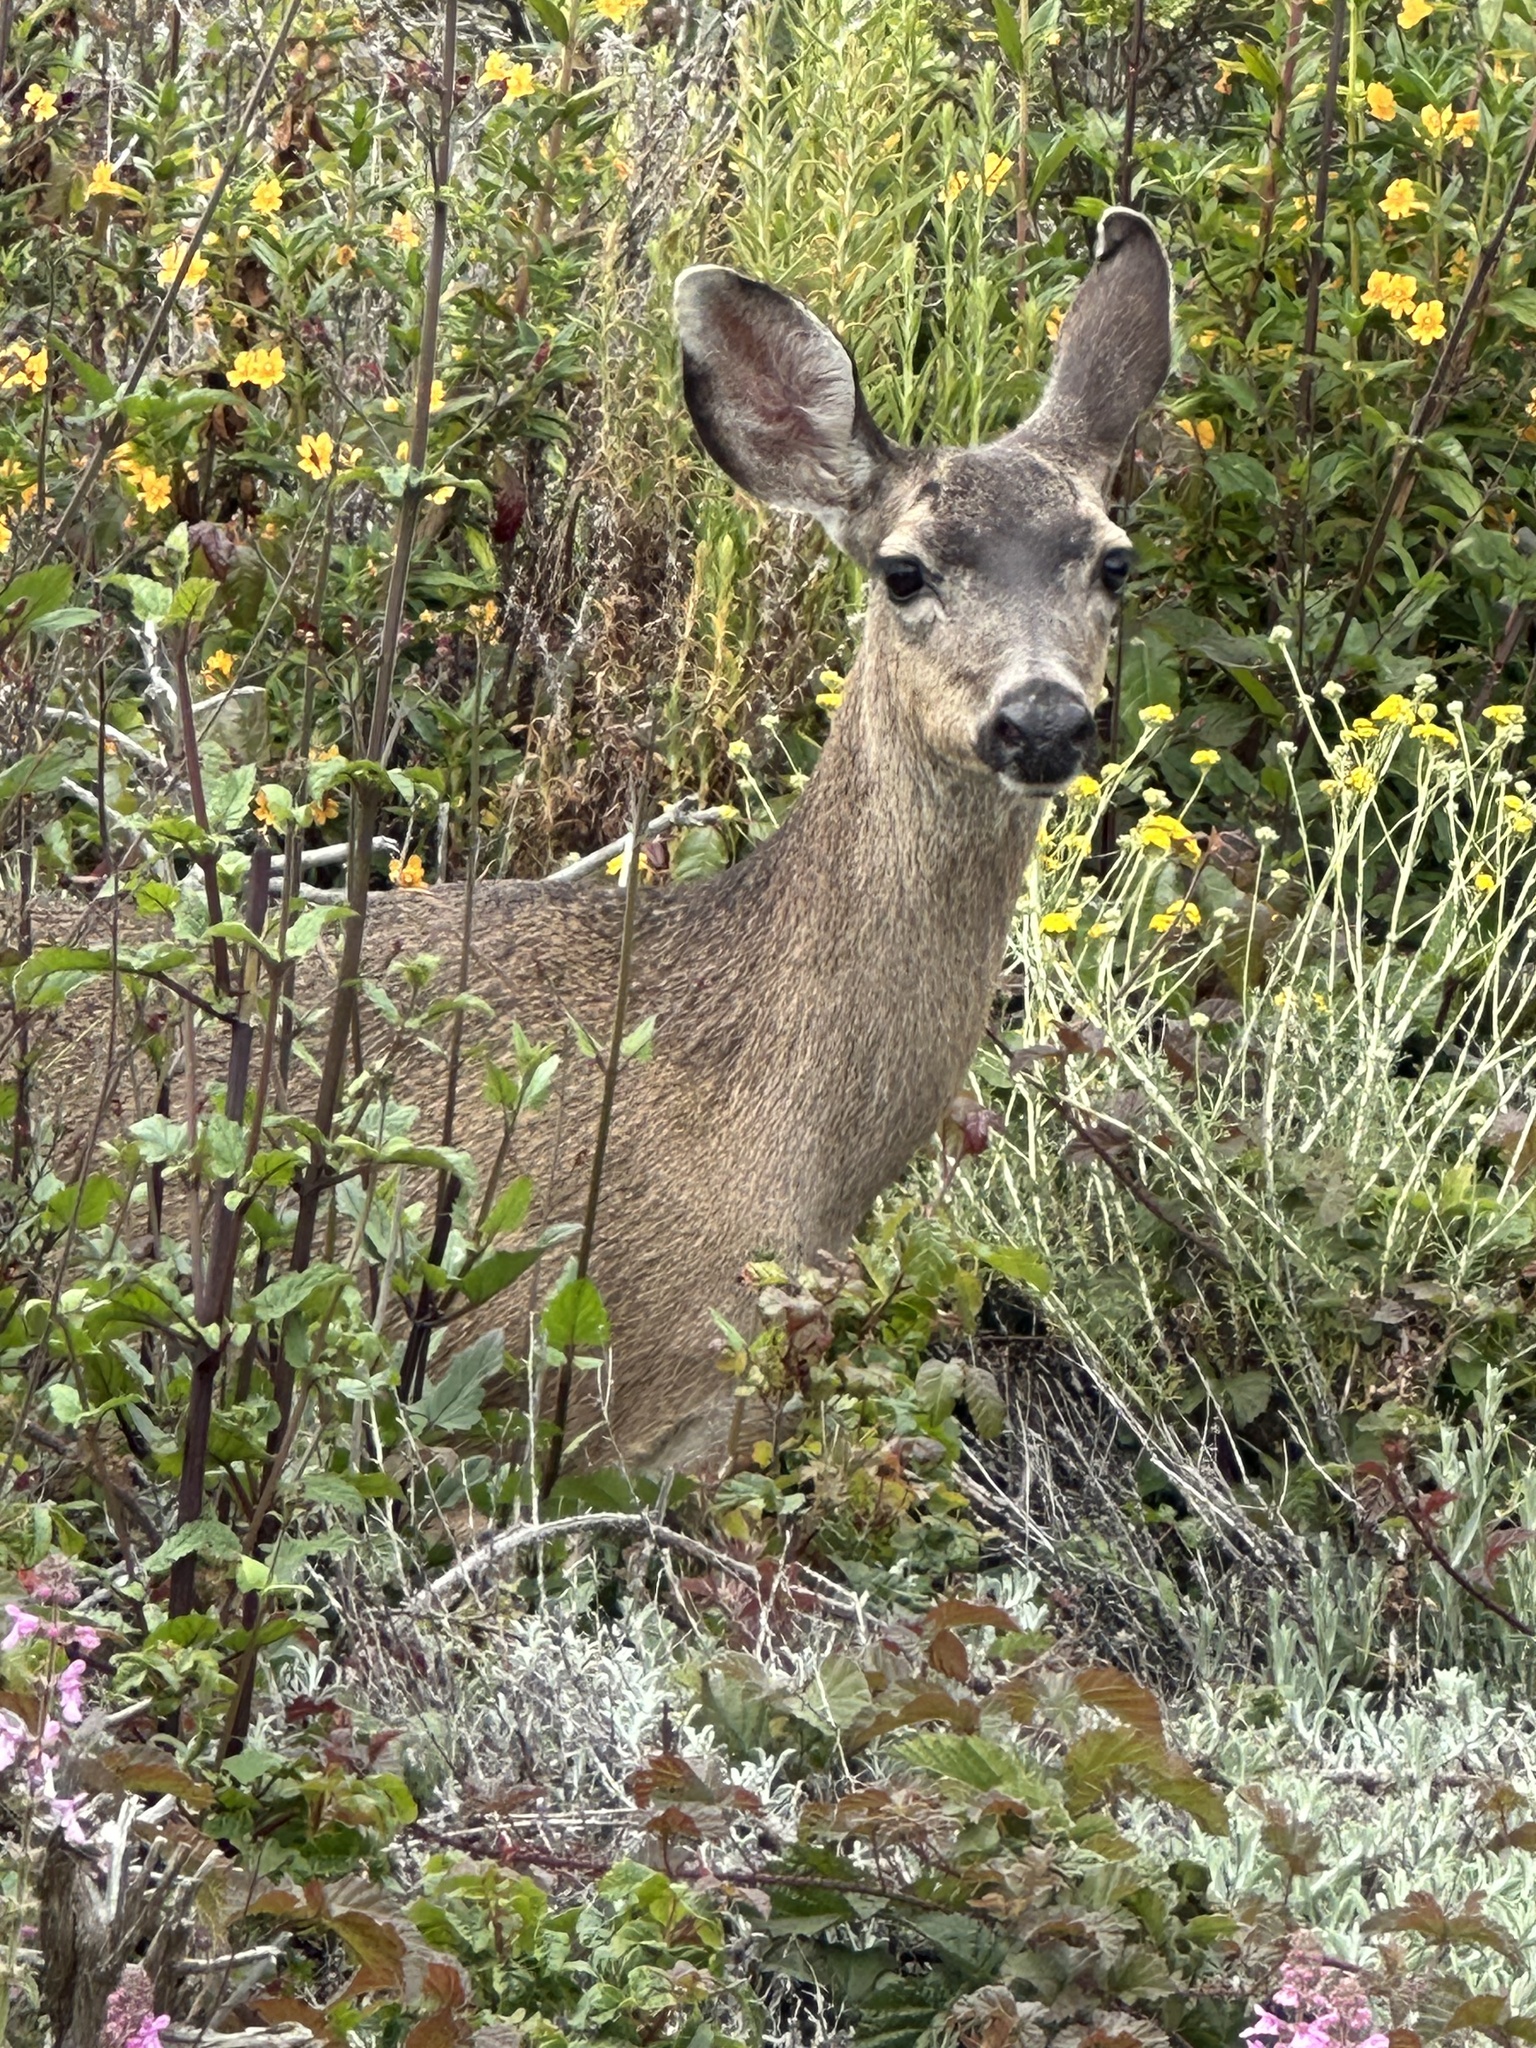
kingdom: Animalia
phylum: Chordata
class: Mammalia
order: Artiodactyla
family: Cervidae
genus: Odocoileus
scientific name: Odocoileus hemionus
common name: Mule deer
